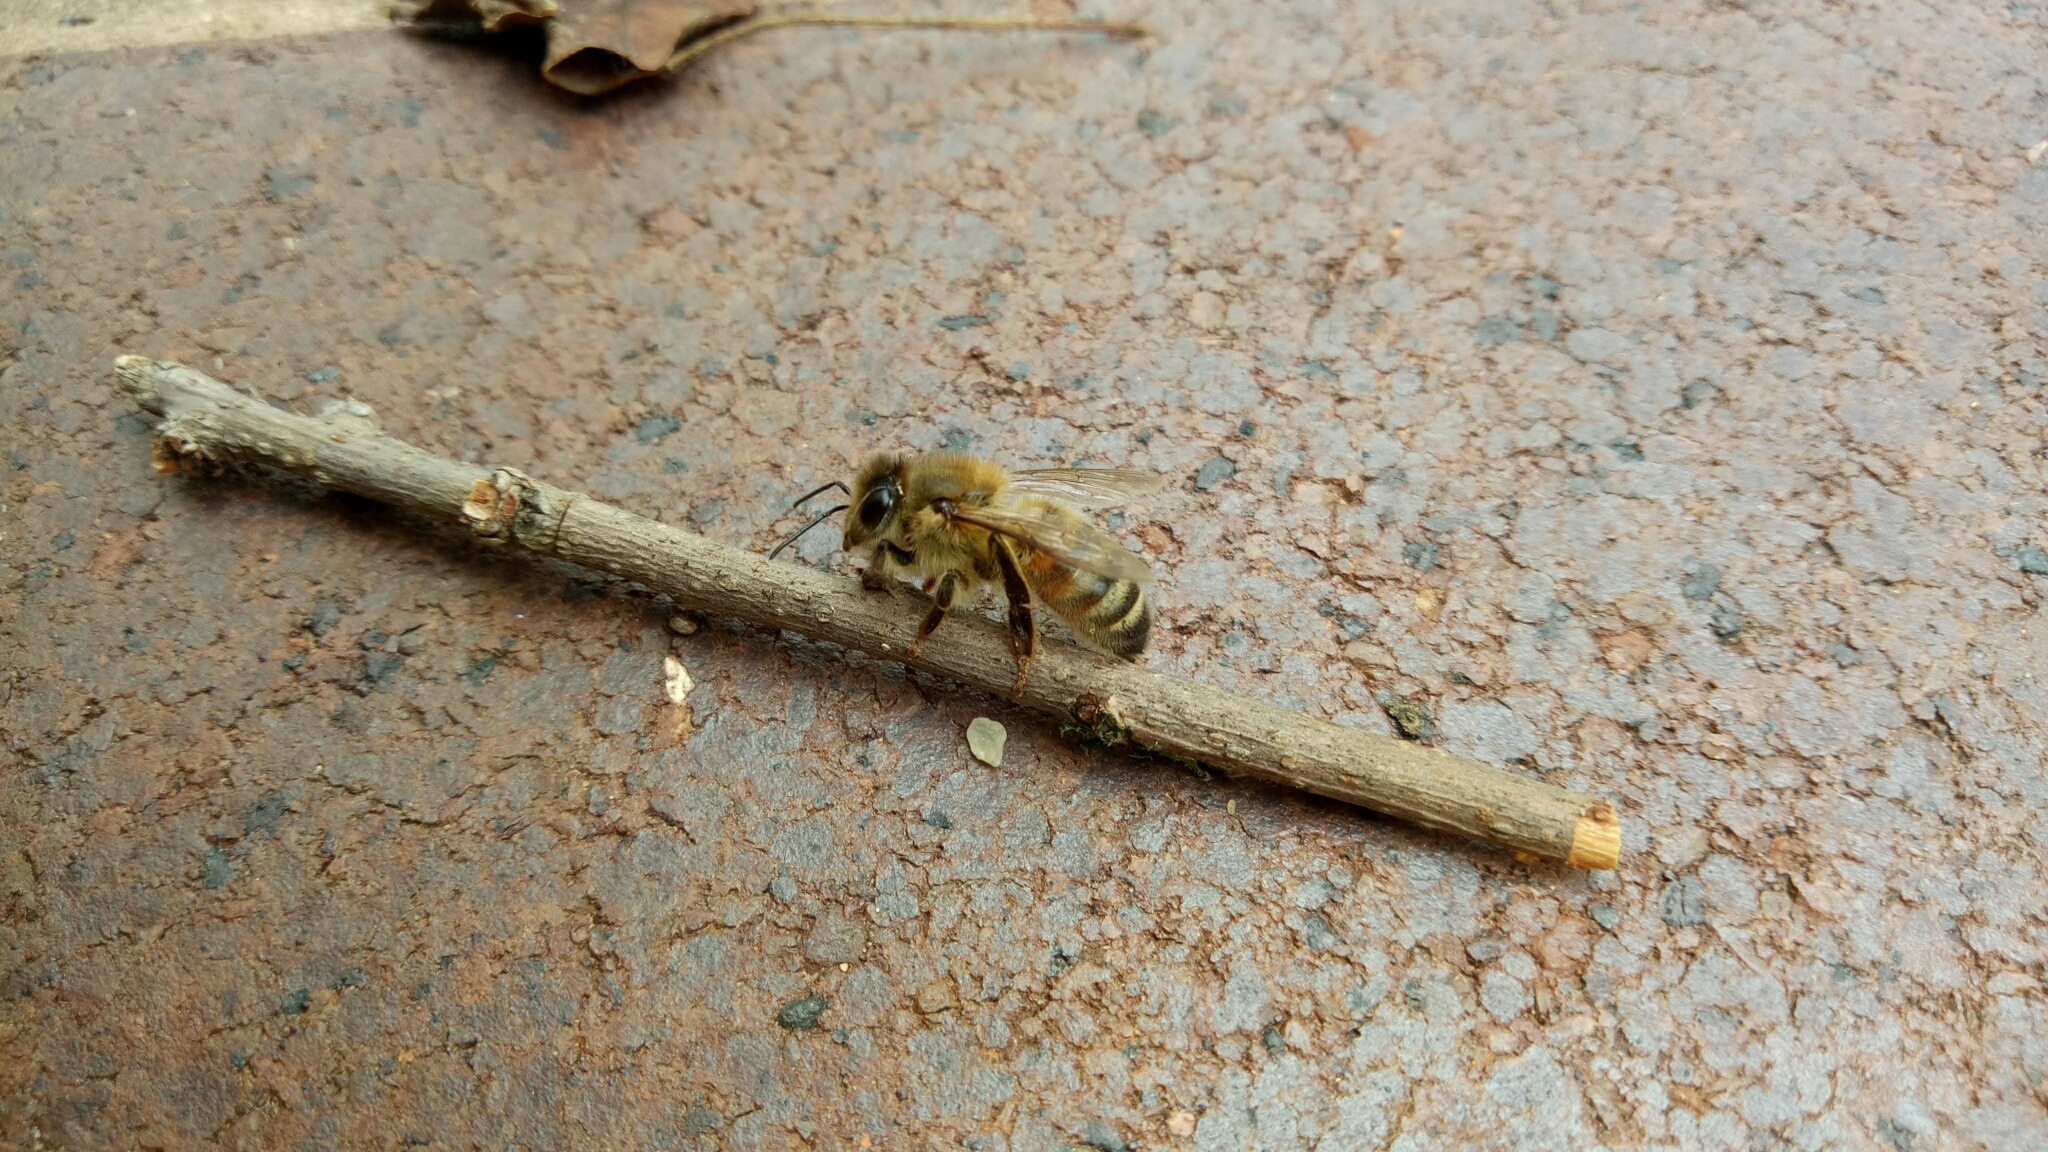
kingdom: Animalia
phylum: Arthropoda
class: Insecta
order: Hymenoptera
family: Apidae
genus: Apis
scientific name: Apis mellifera
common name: Honey bee
